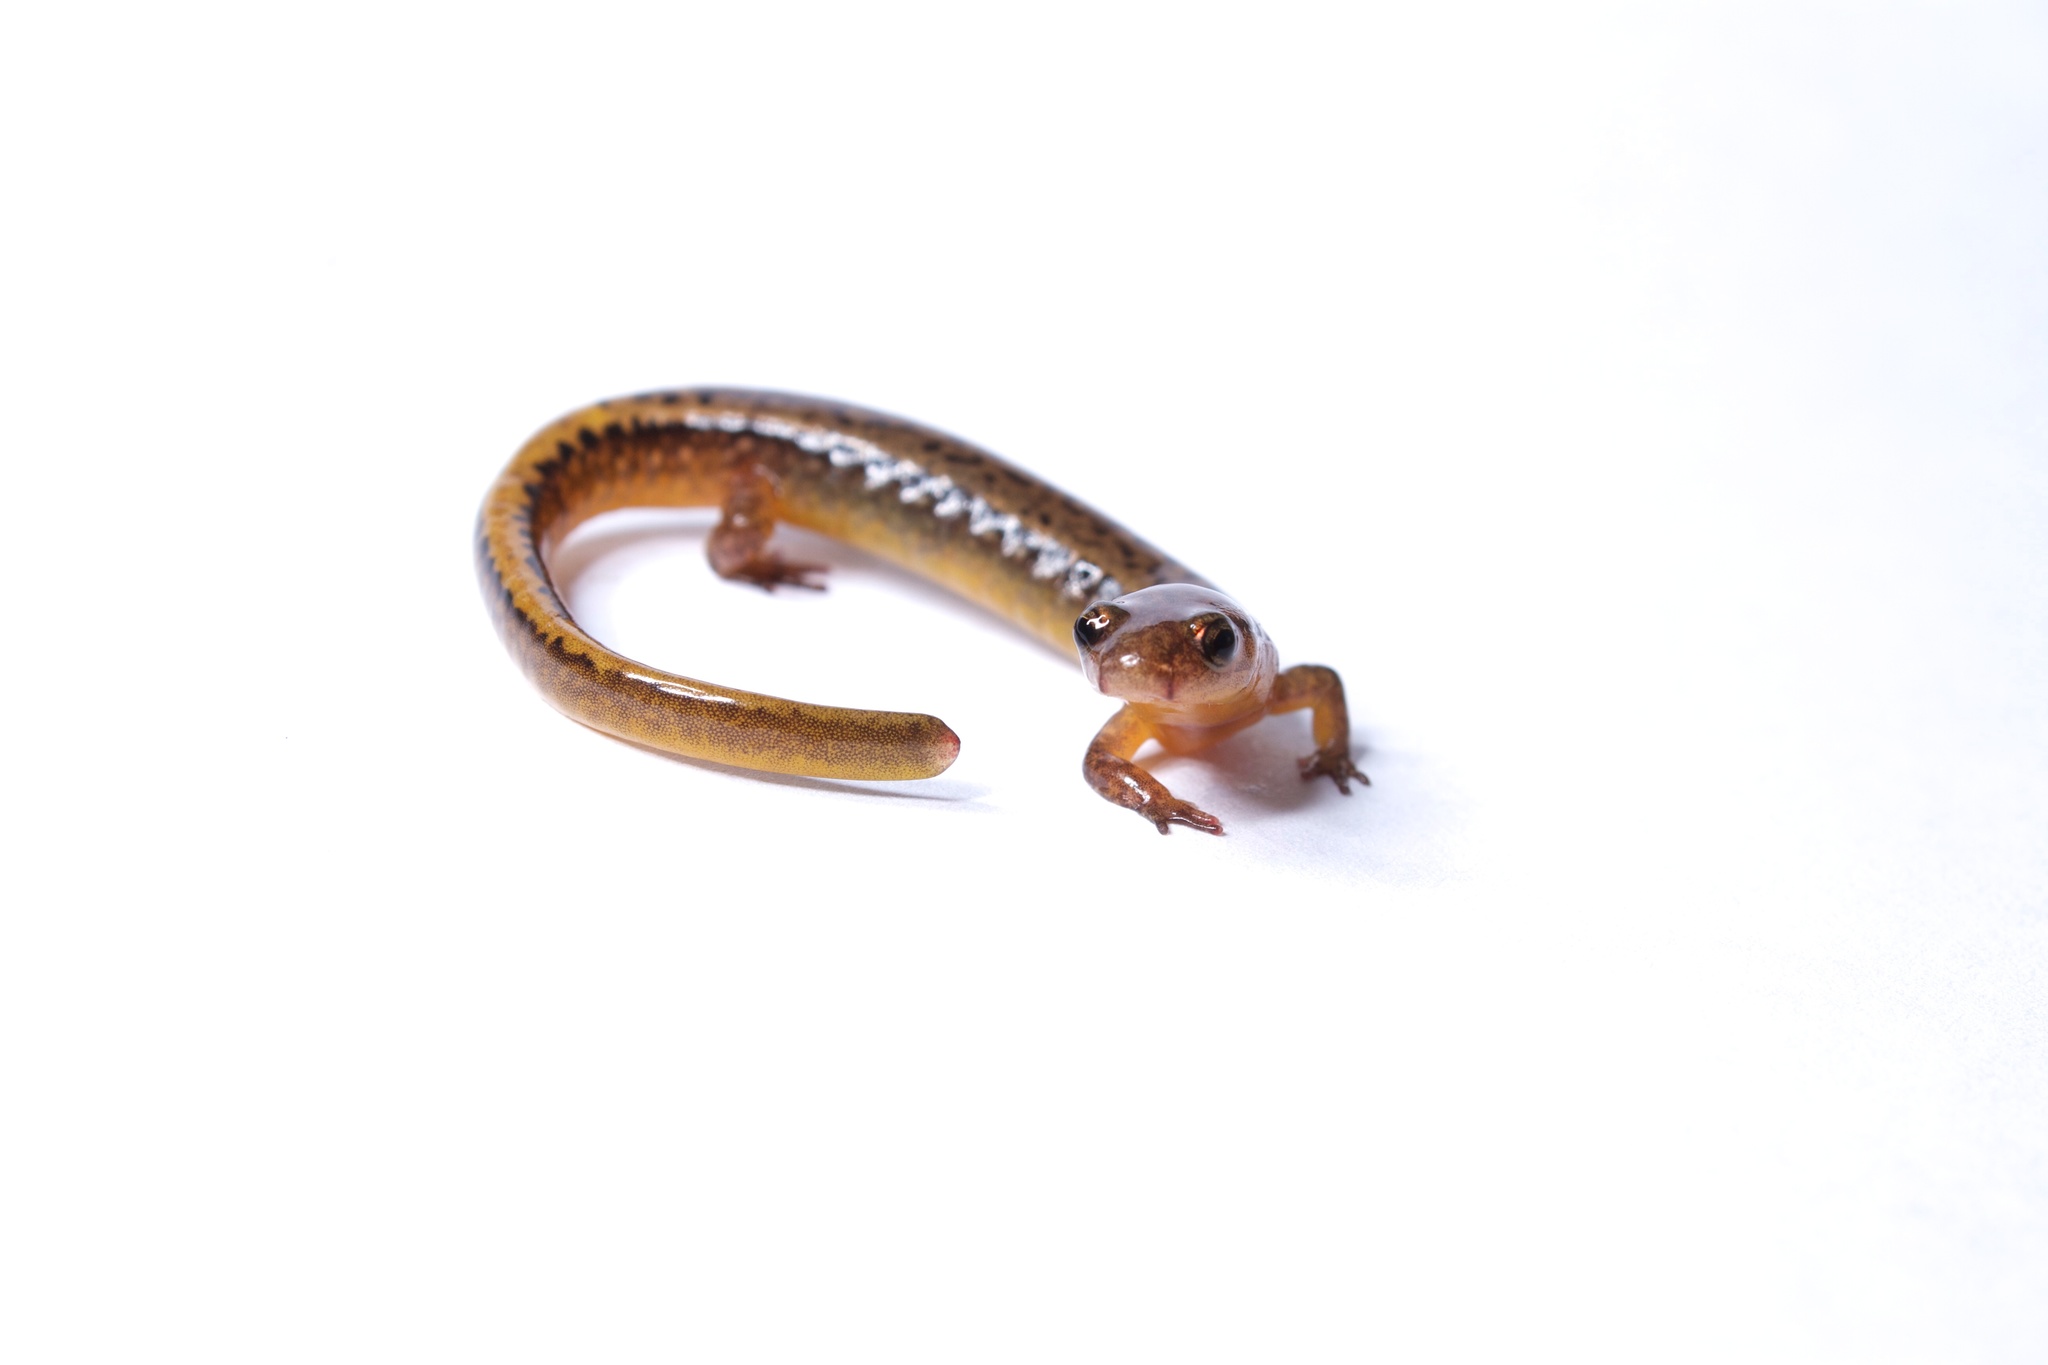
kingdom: Animalia
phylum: Chordata
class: Amphibia
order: Caudata
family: Plethodontidae
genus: Eurycea
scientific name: Eurycea bislineata
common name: Northern two-lined salamander
